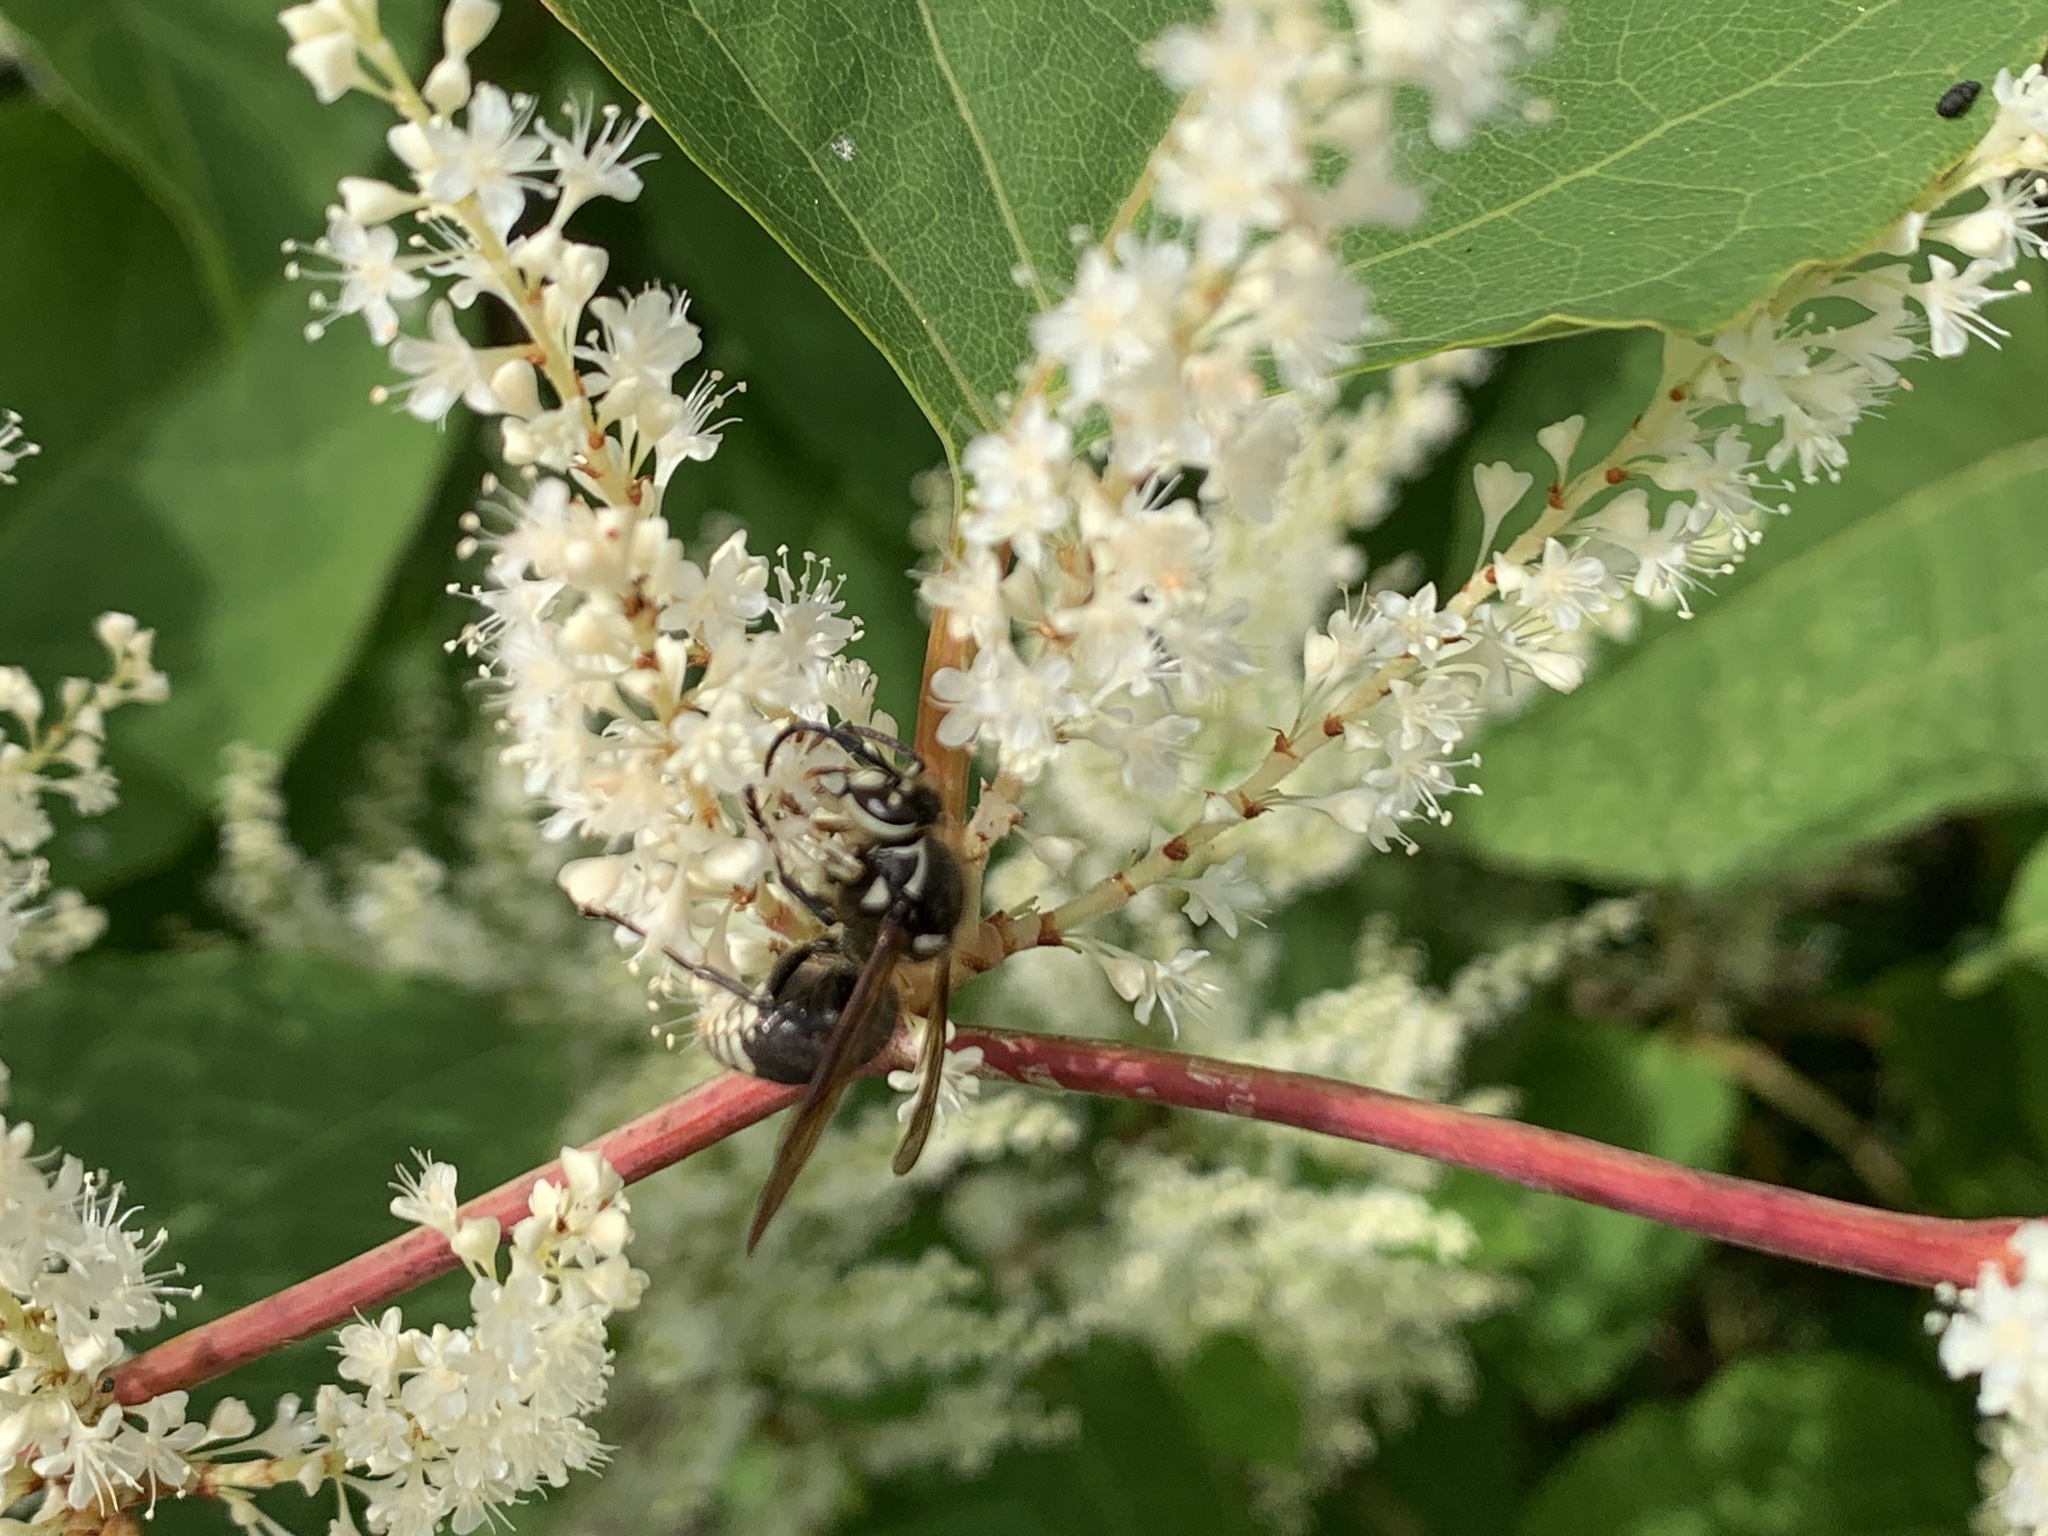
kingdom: Animalia
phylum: Arthropoda
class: Insecta
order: Hymenoptera
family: Vespidae
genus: Dolichovespula
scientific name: Dolichovespula maculata
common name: Bald-faced hornet
